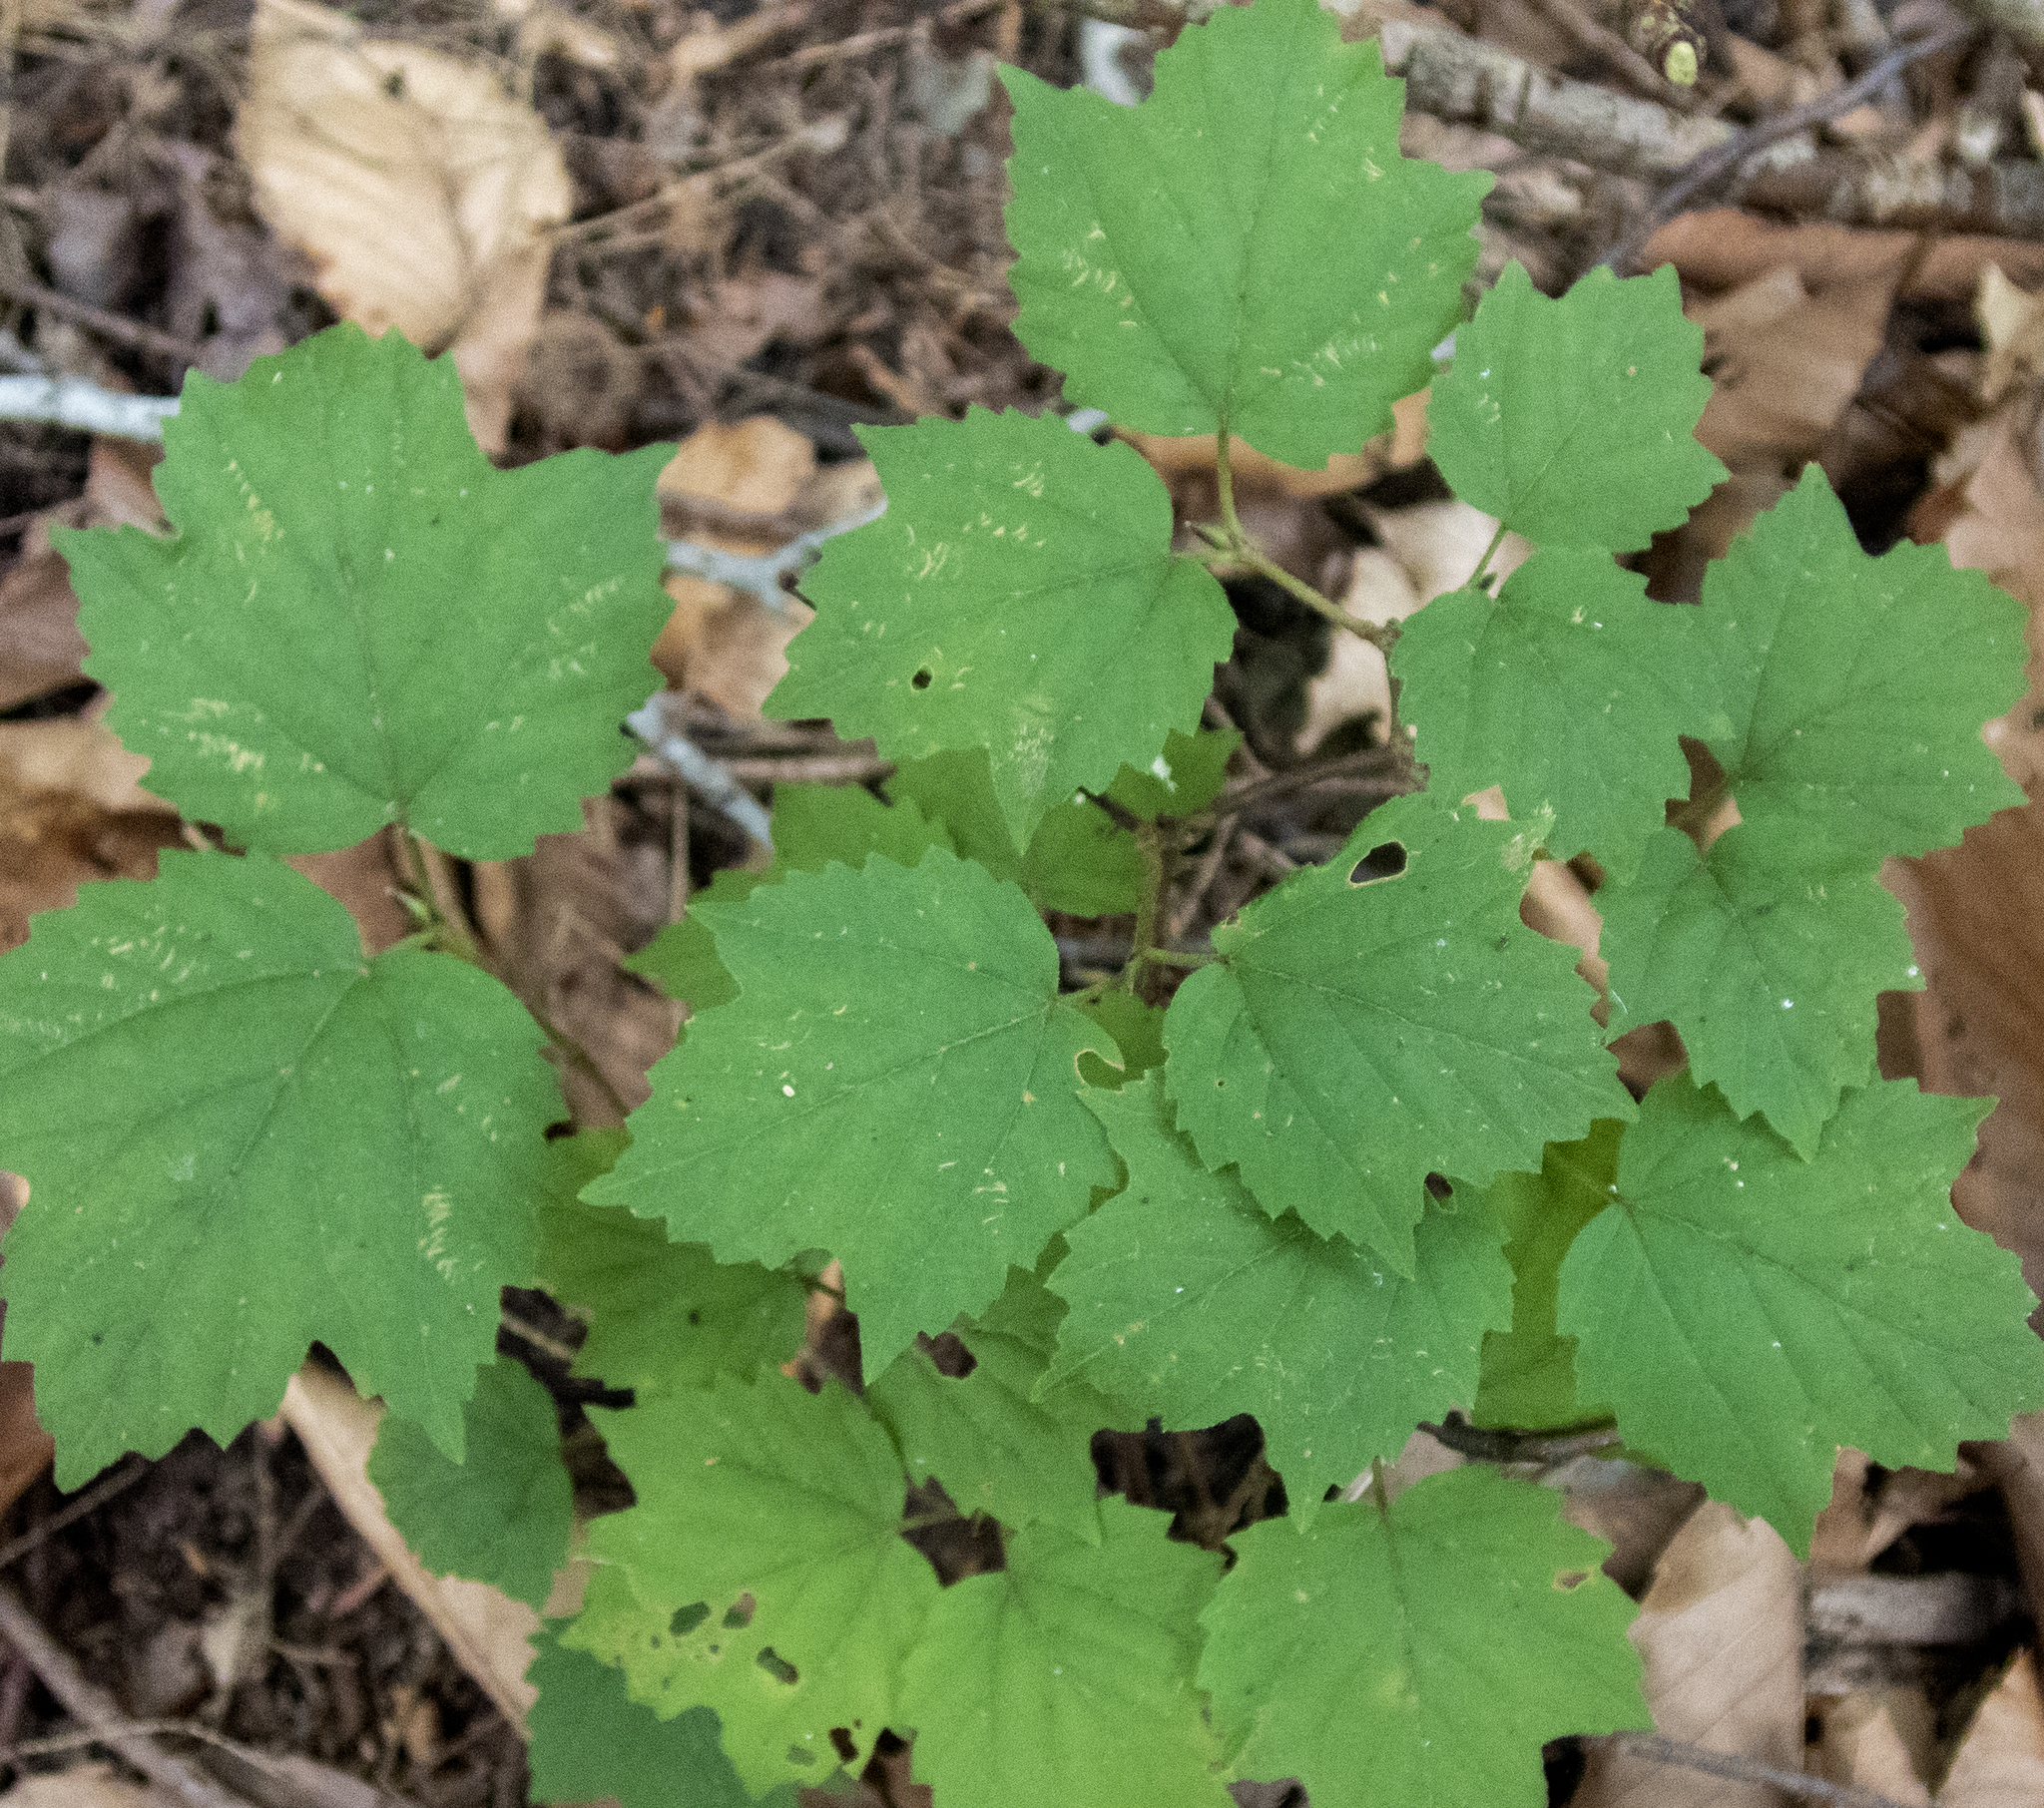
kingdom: Plantae
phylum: Tracheophyta
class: Magnoliopsida
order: Dipsacales
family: Viburnaceae
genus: Viburnum
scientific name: Viburnum acerifolium
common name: Dockmackie
